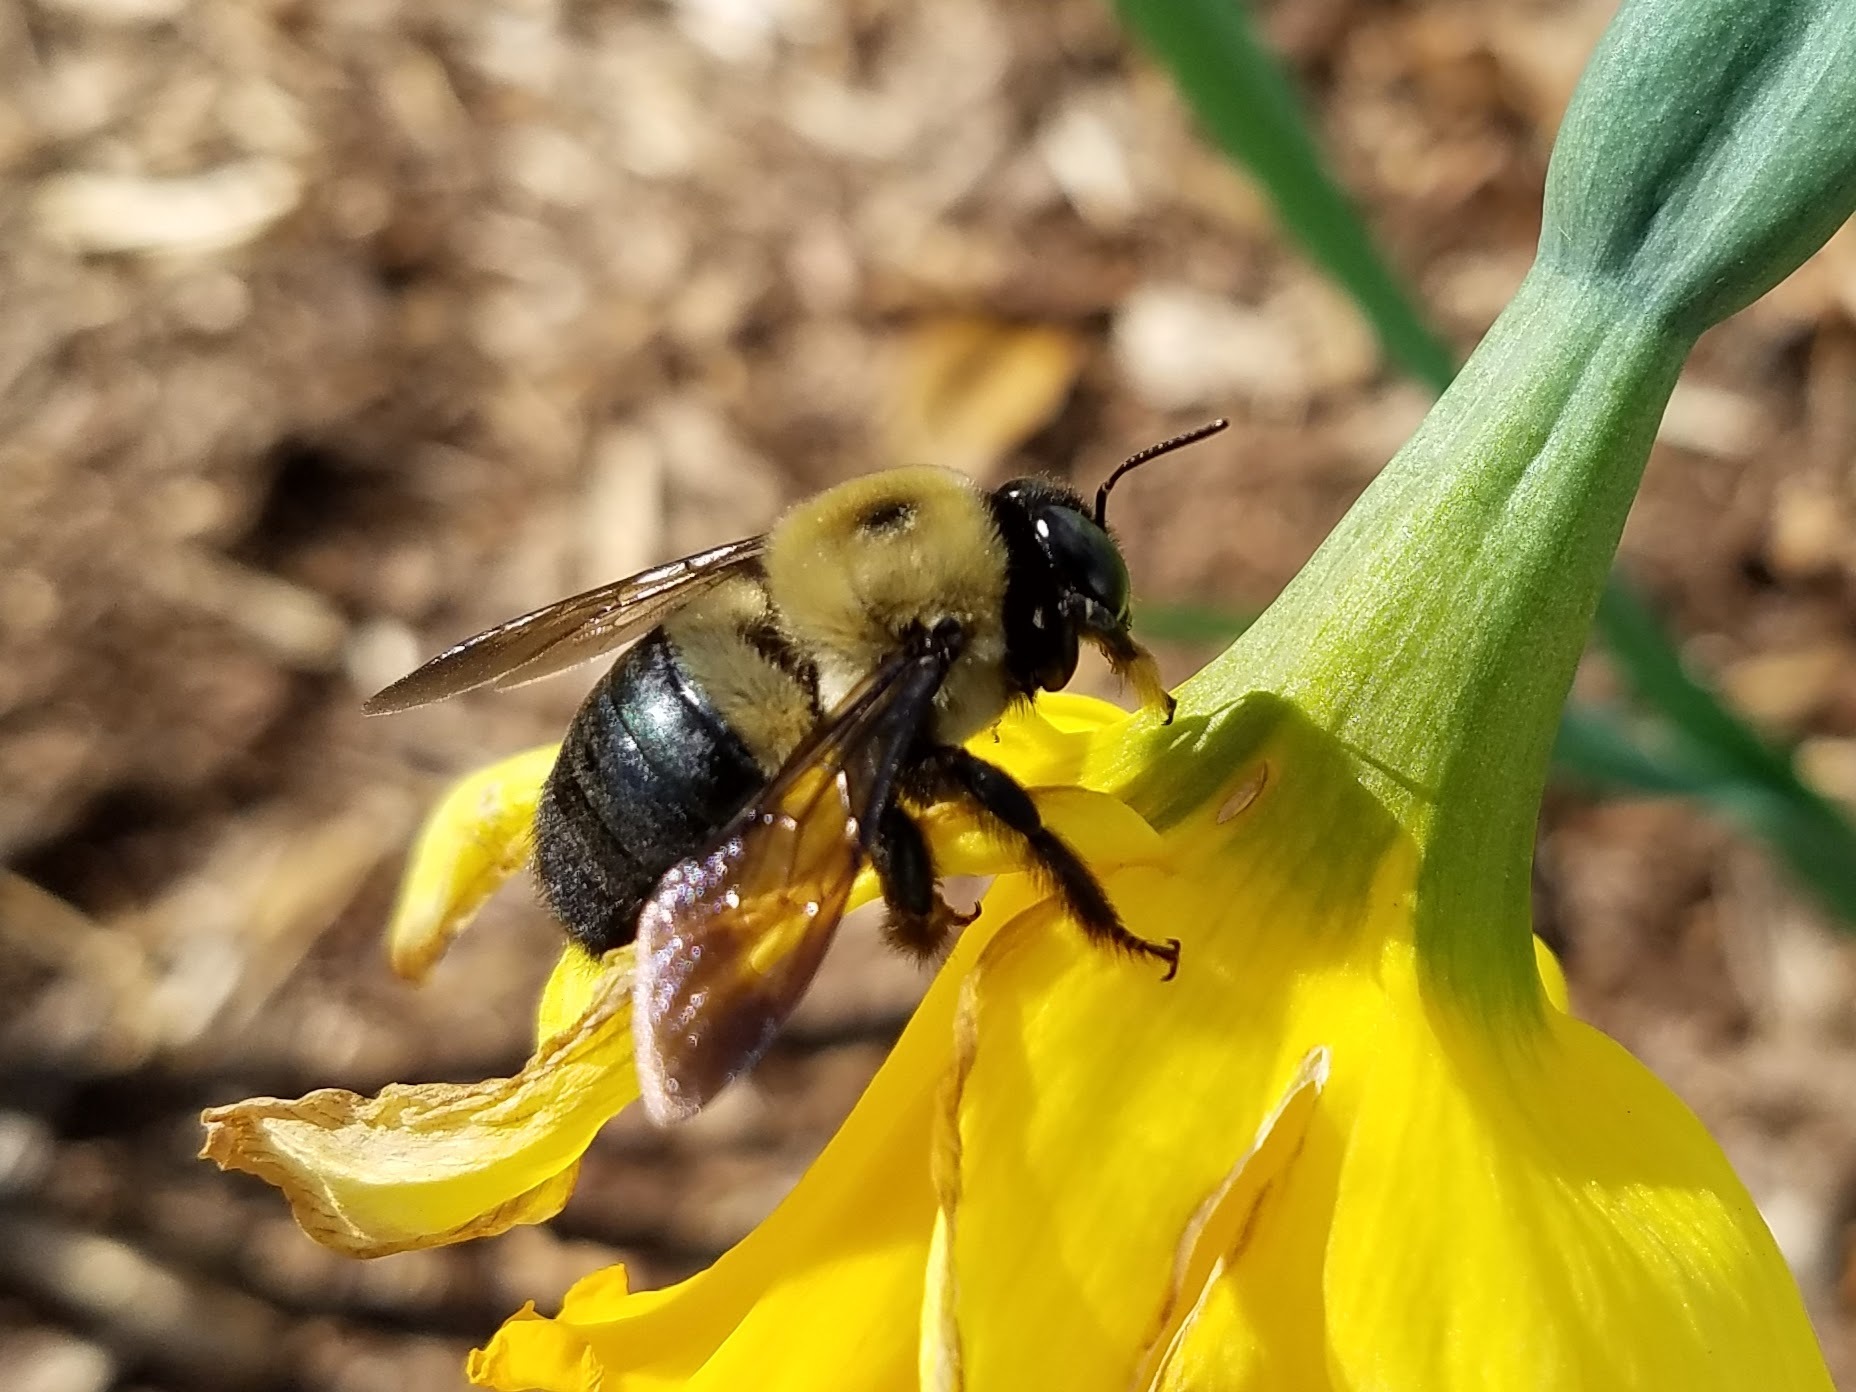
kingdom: Animalia
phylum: Arthropoda
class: Insecta
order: Hymenoptera
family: Apidae
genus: Xylocopa
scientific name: Xylocopa virginica
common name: Carpenter bee
